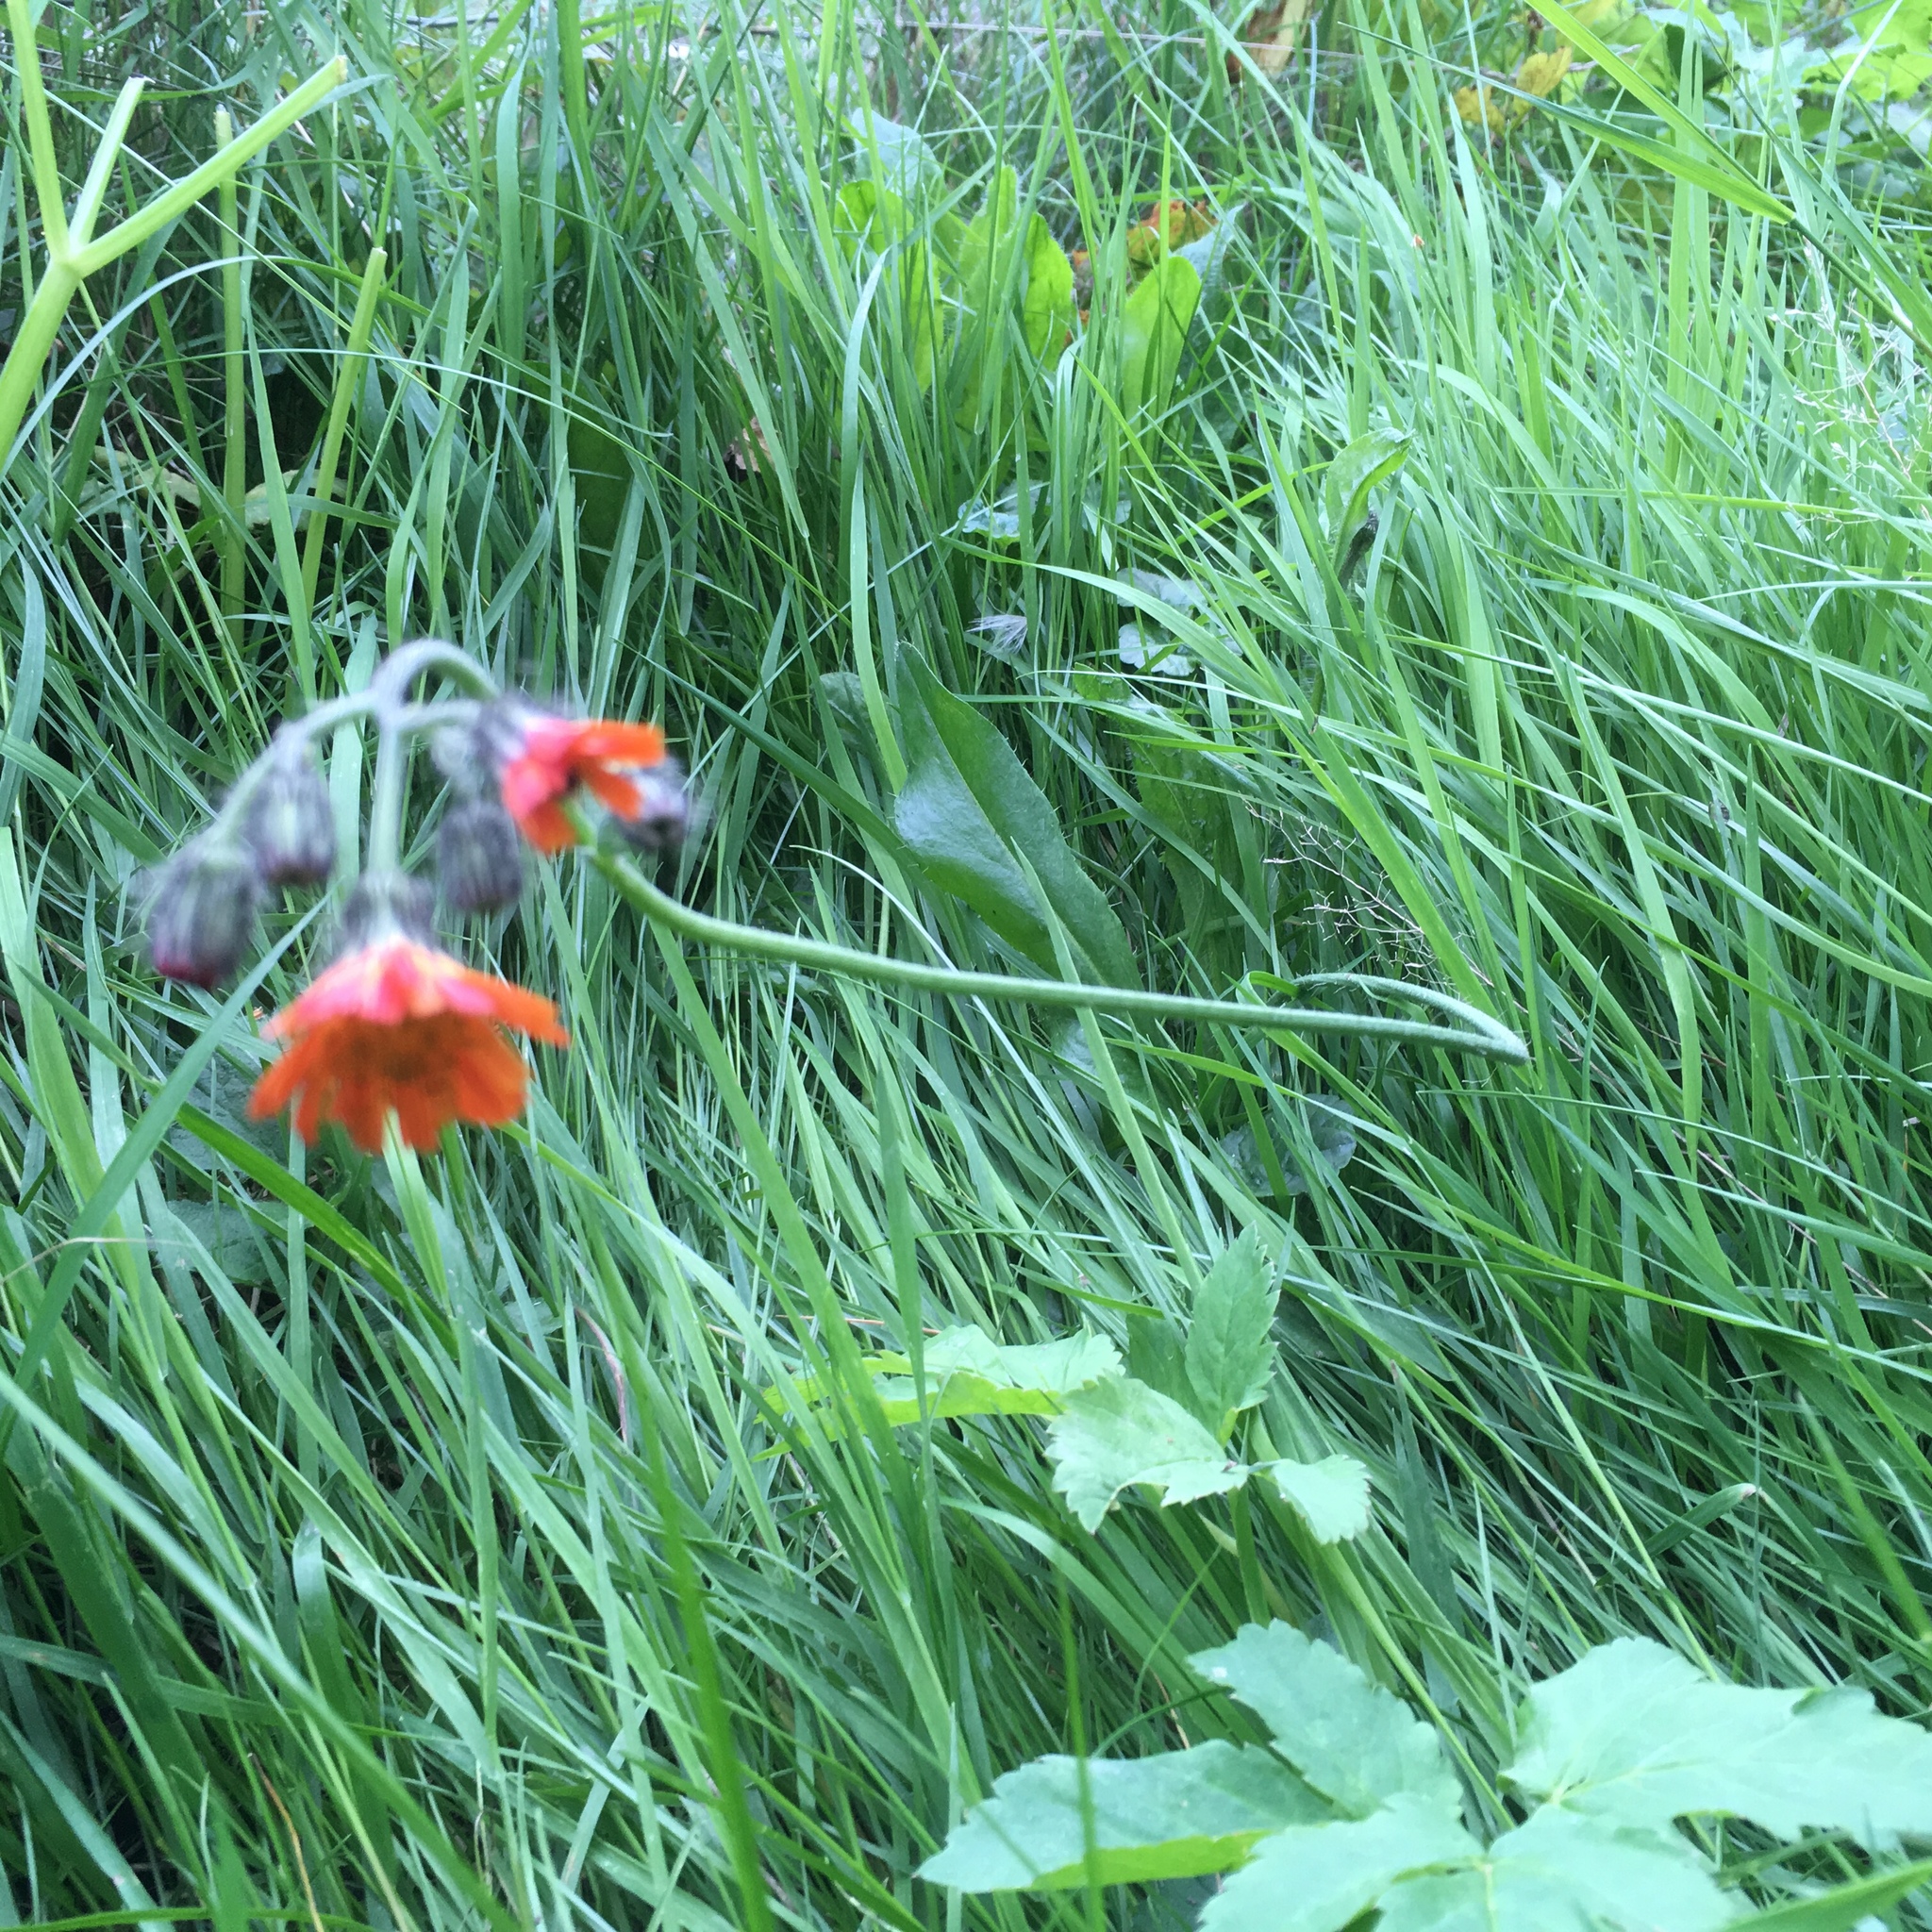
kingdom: Plantae
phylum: Tracheophyta
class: Magnoliopsida
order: Asterales
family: Asteraceae
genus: Pilosella
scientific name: Pilosella aurantiaca
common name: Fox-and-cubs
